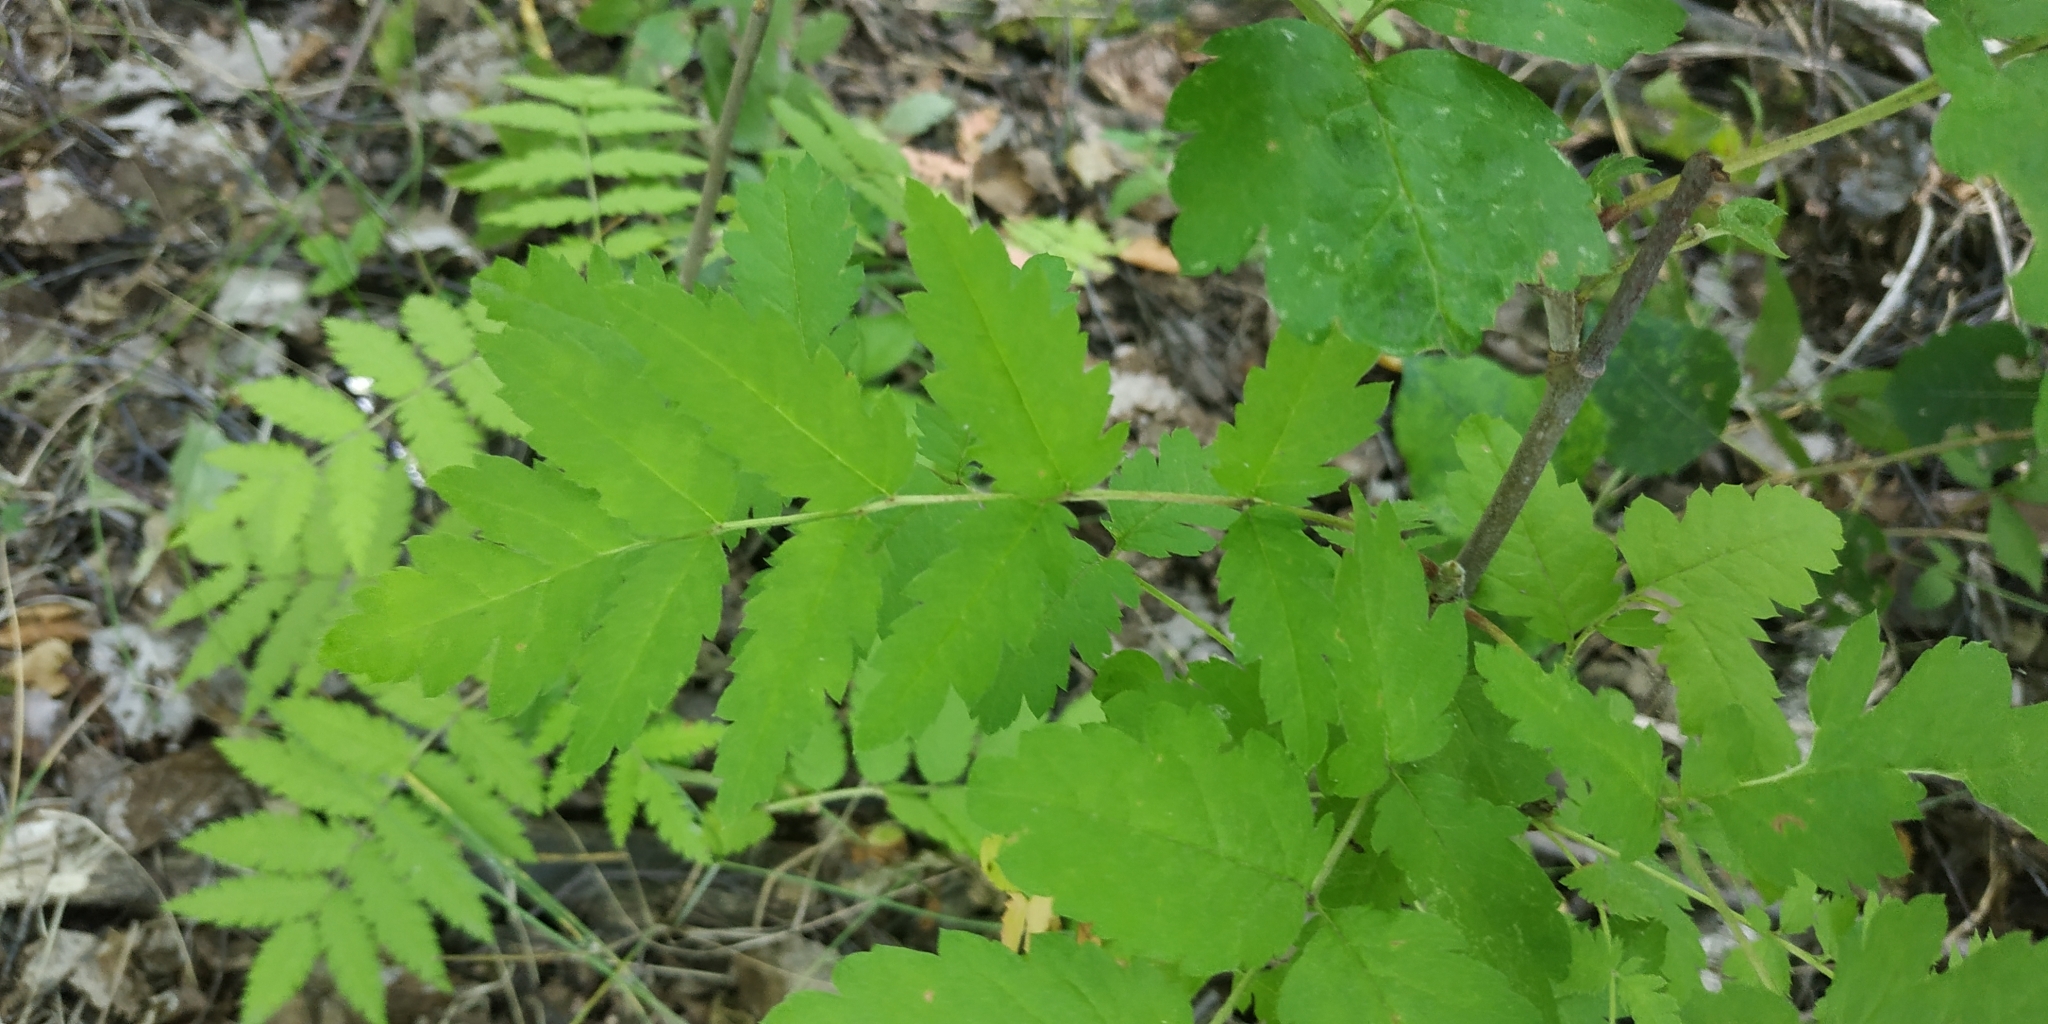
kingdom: Plantae
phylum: Tracheophyta
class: Magnoliopsida
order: Rosales
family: Rosaceae
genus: Sorbus
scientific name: Sorbus aucuparia
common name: Rowan
